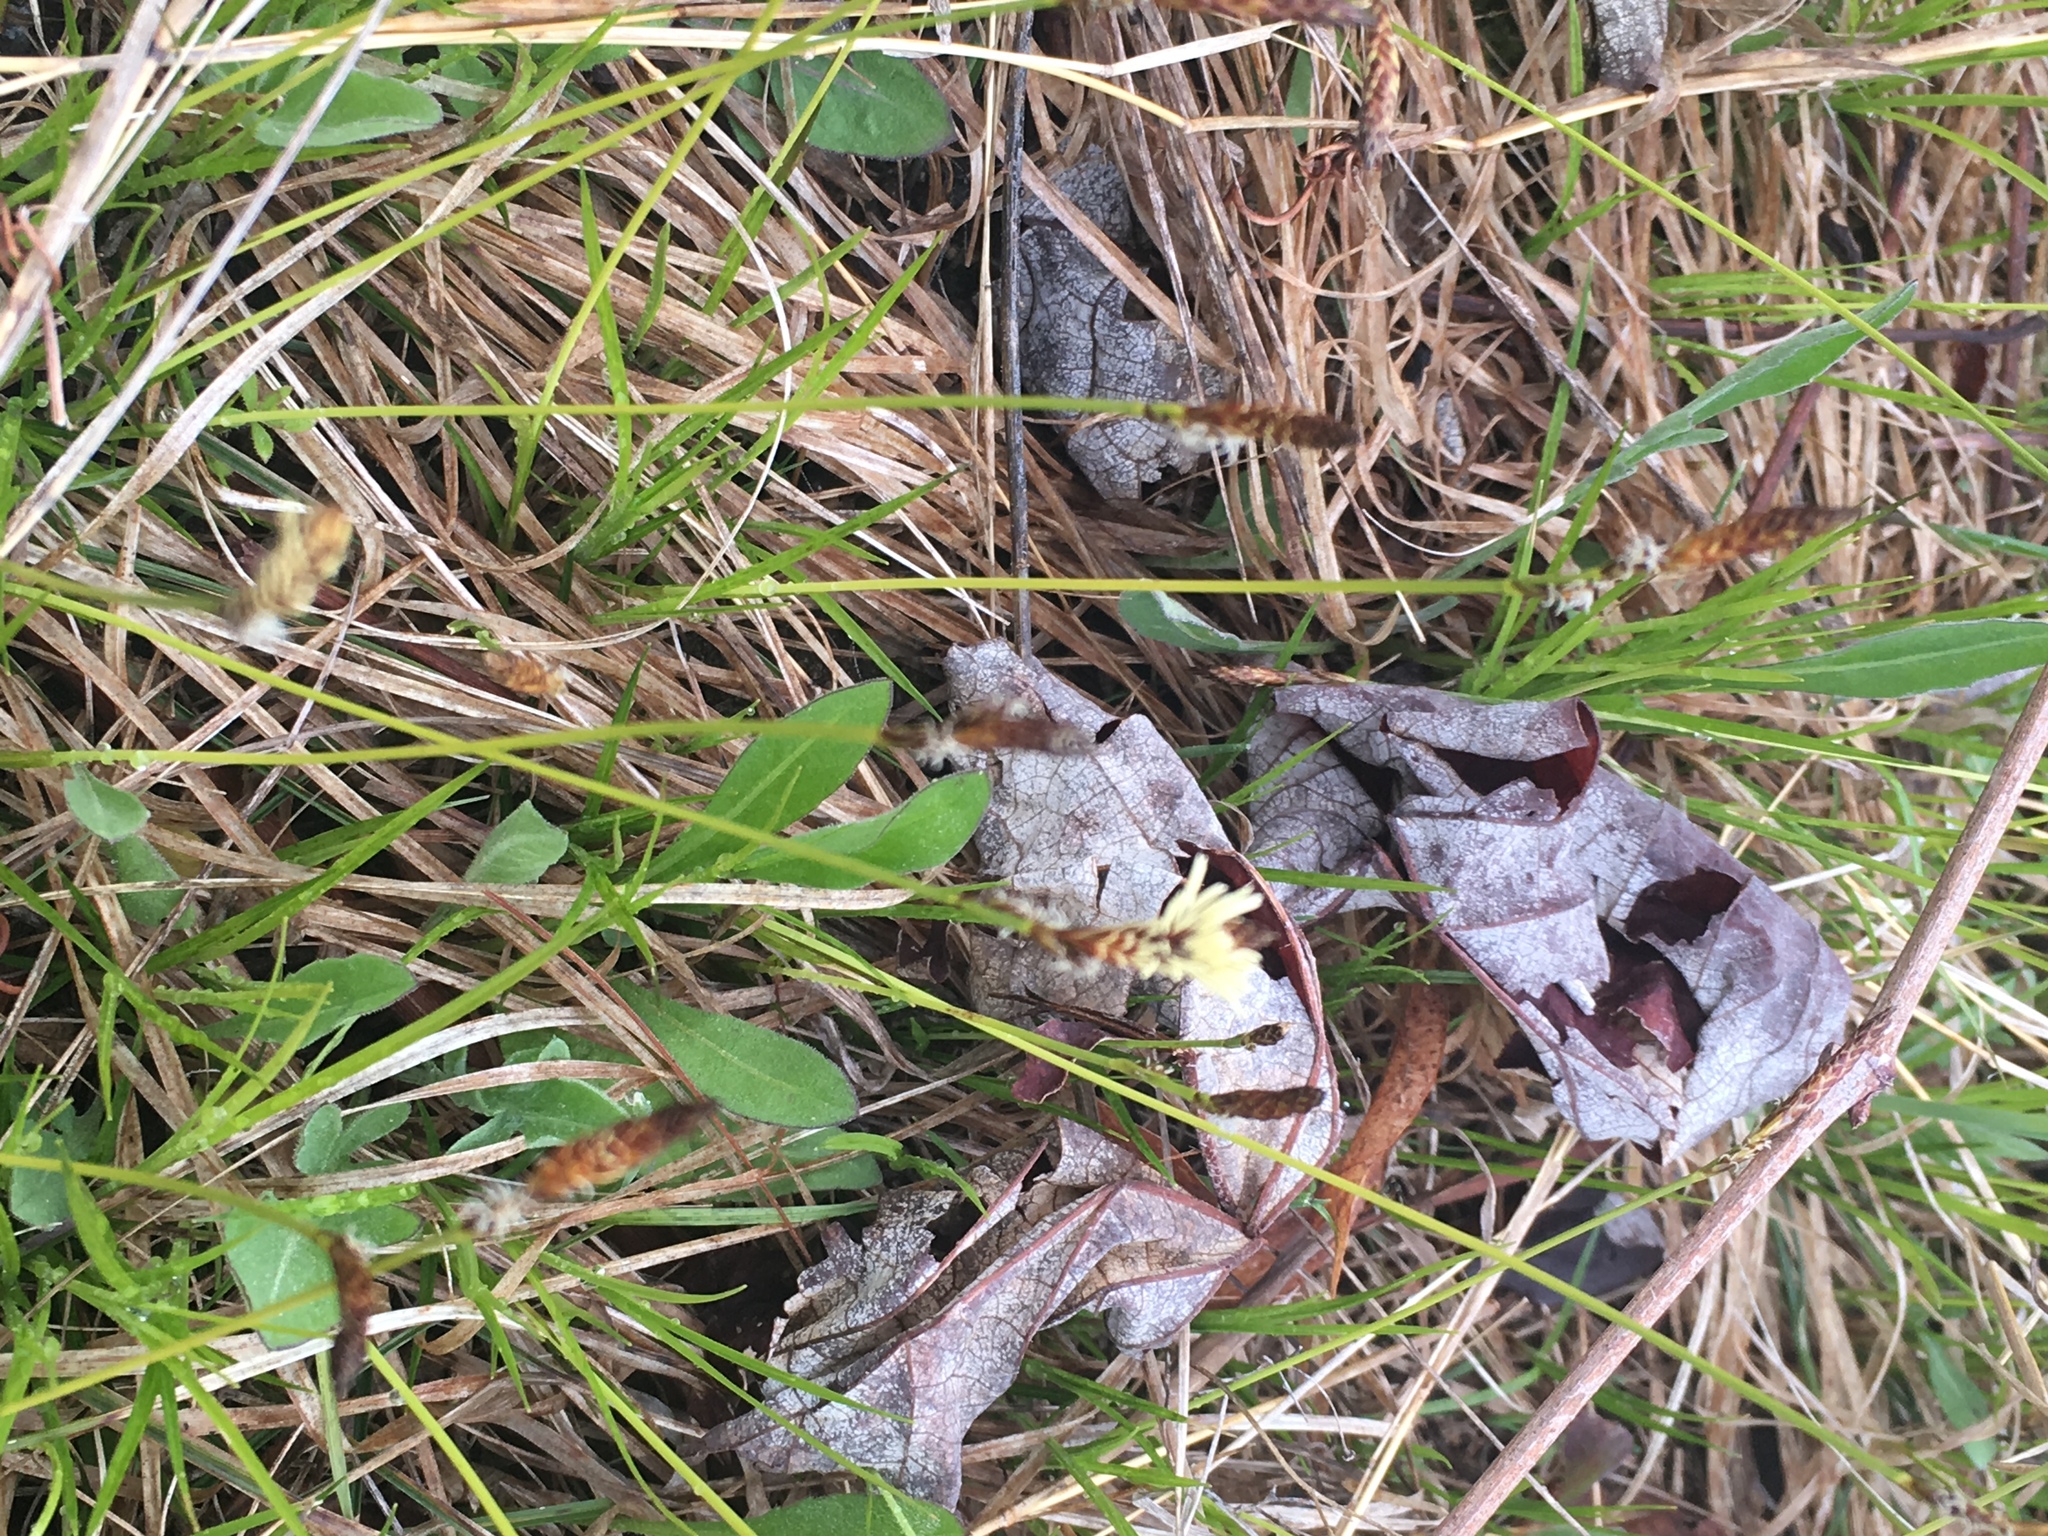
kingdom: Plantae
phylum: Tracheophyta
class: Liliopsida
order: Poales
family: Cyperaceae
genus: Carex
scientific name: Carex pensylvanica
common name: Common oak sedge
